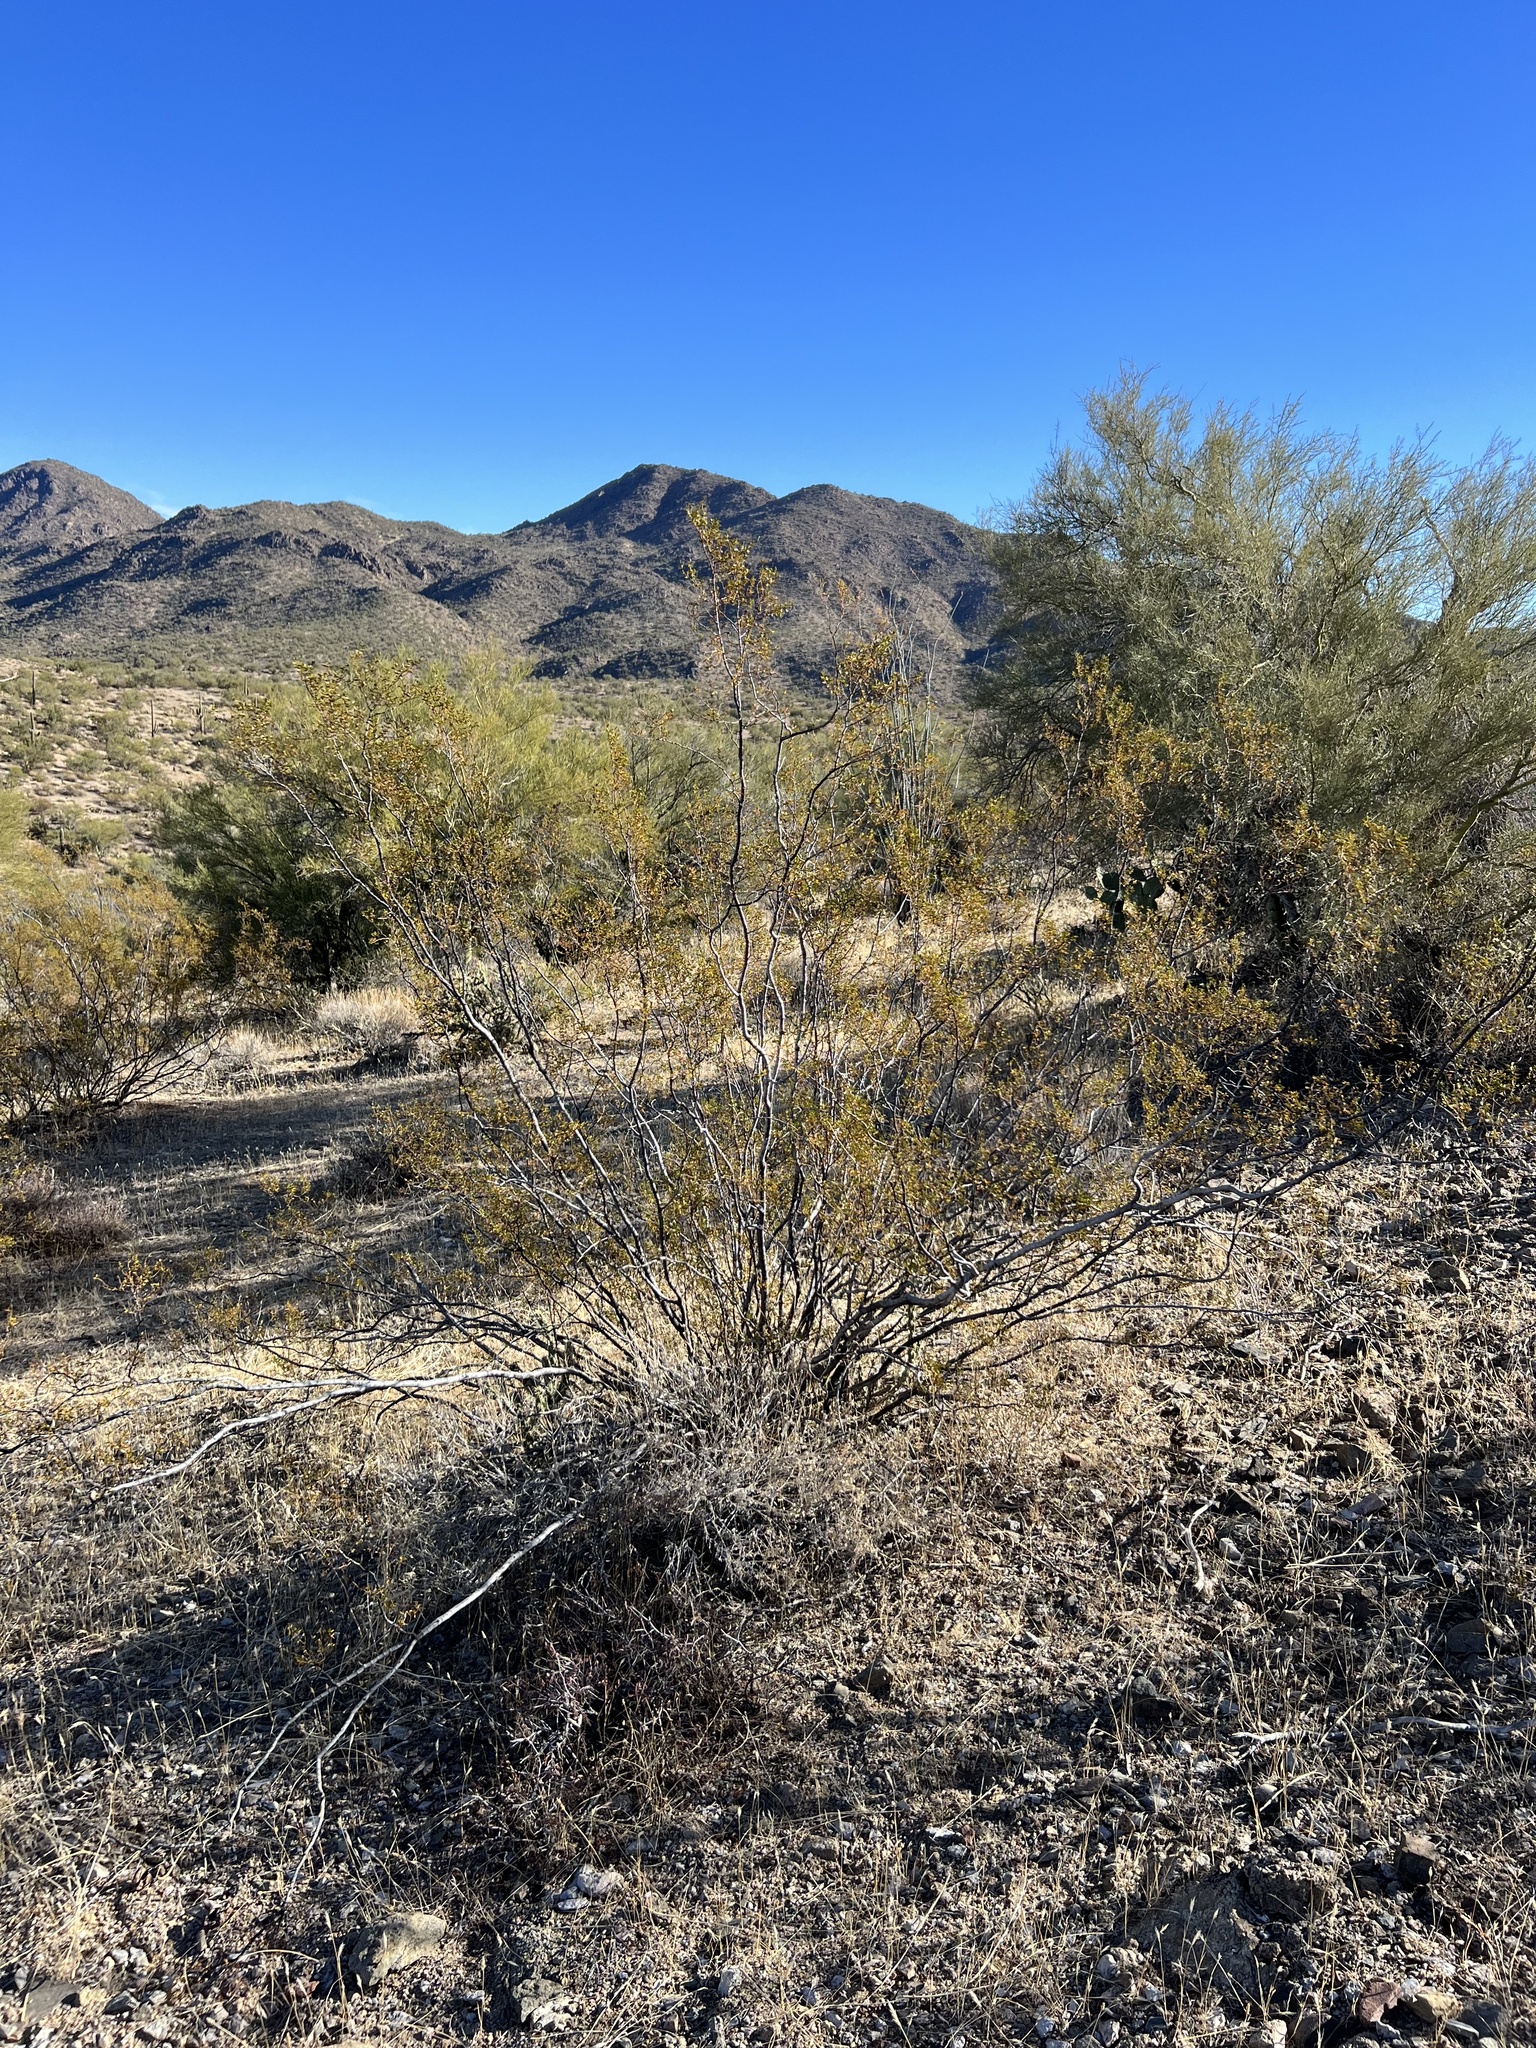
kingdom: Plantae
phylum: Tracheophyta
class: Magnoliopsida
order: Zygophyllales
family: Zygophyllaceae
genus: Larrea
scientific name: Larrea tridentata
